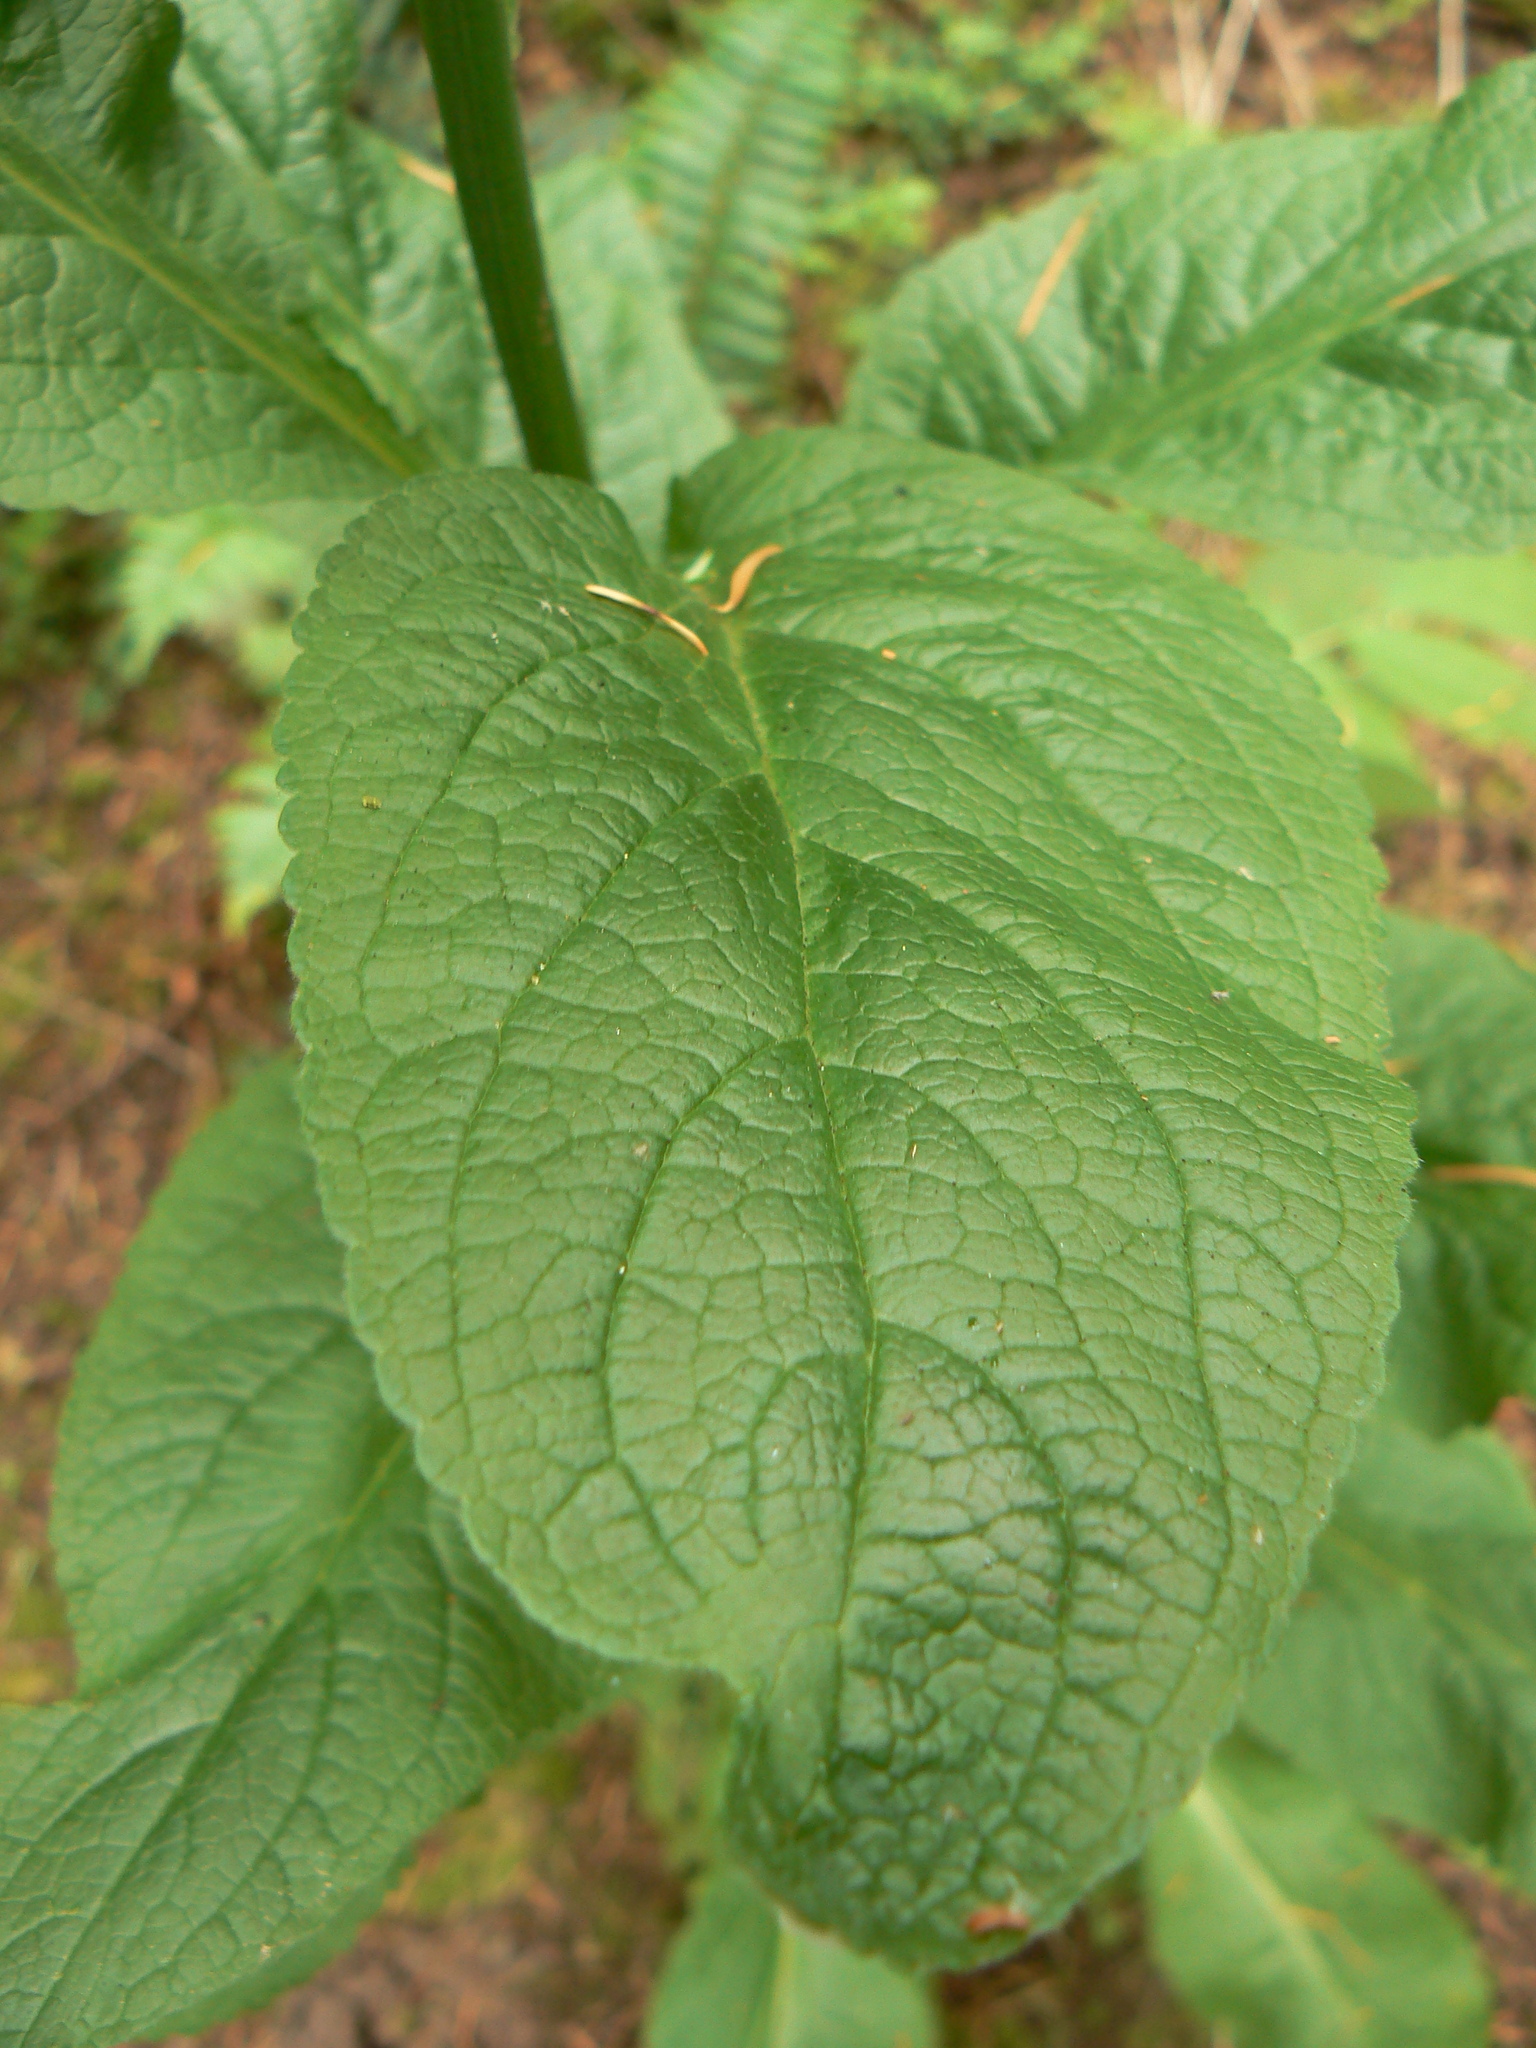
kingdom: Plantae
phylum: Tracheophyta
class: Magnoliopsida
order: Lamiales
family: Plantaginaceae
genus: Digitalis
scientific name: Digitalis purpurea
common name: Foxglove
